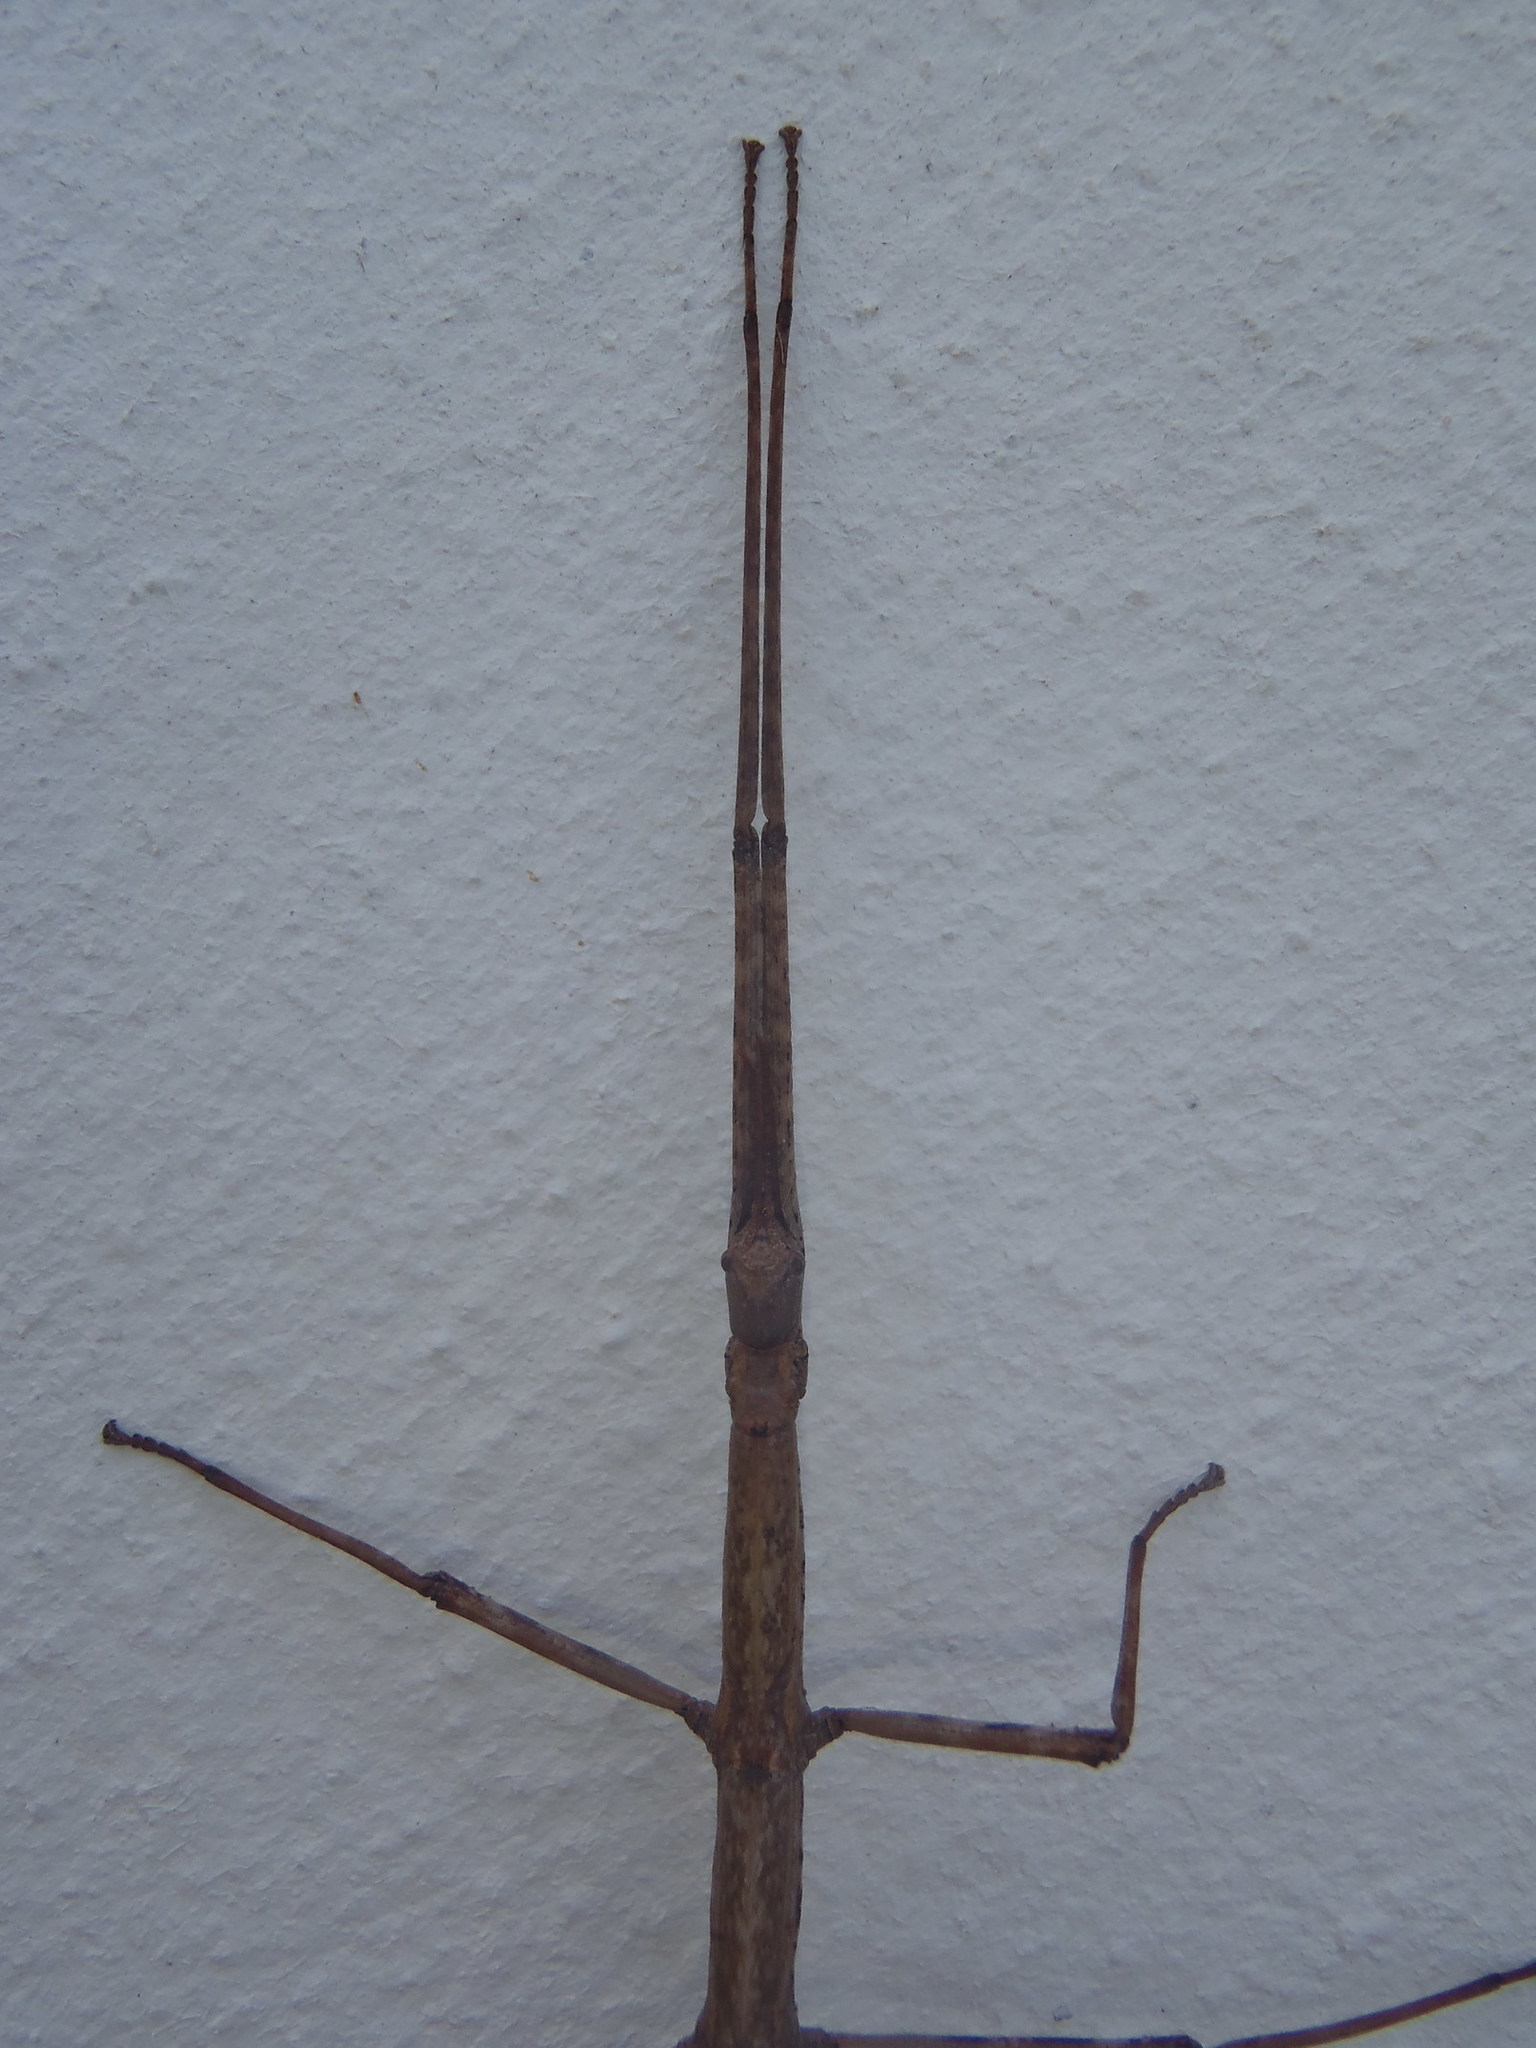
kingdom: Animalia
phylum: Arthropoda
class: Insecta
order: Phasmida
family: Bacillidae
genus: Phalces
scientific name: Phalces brevis
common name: Cape stick insect
